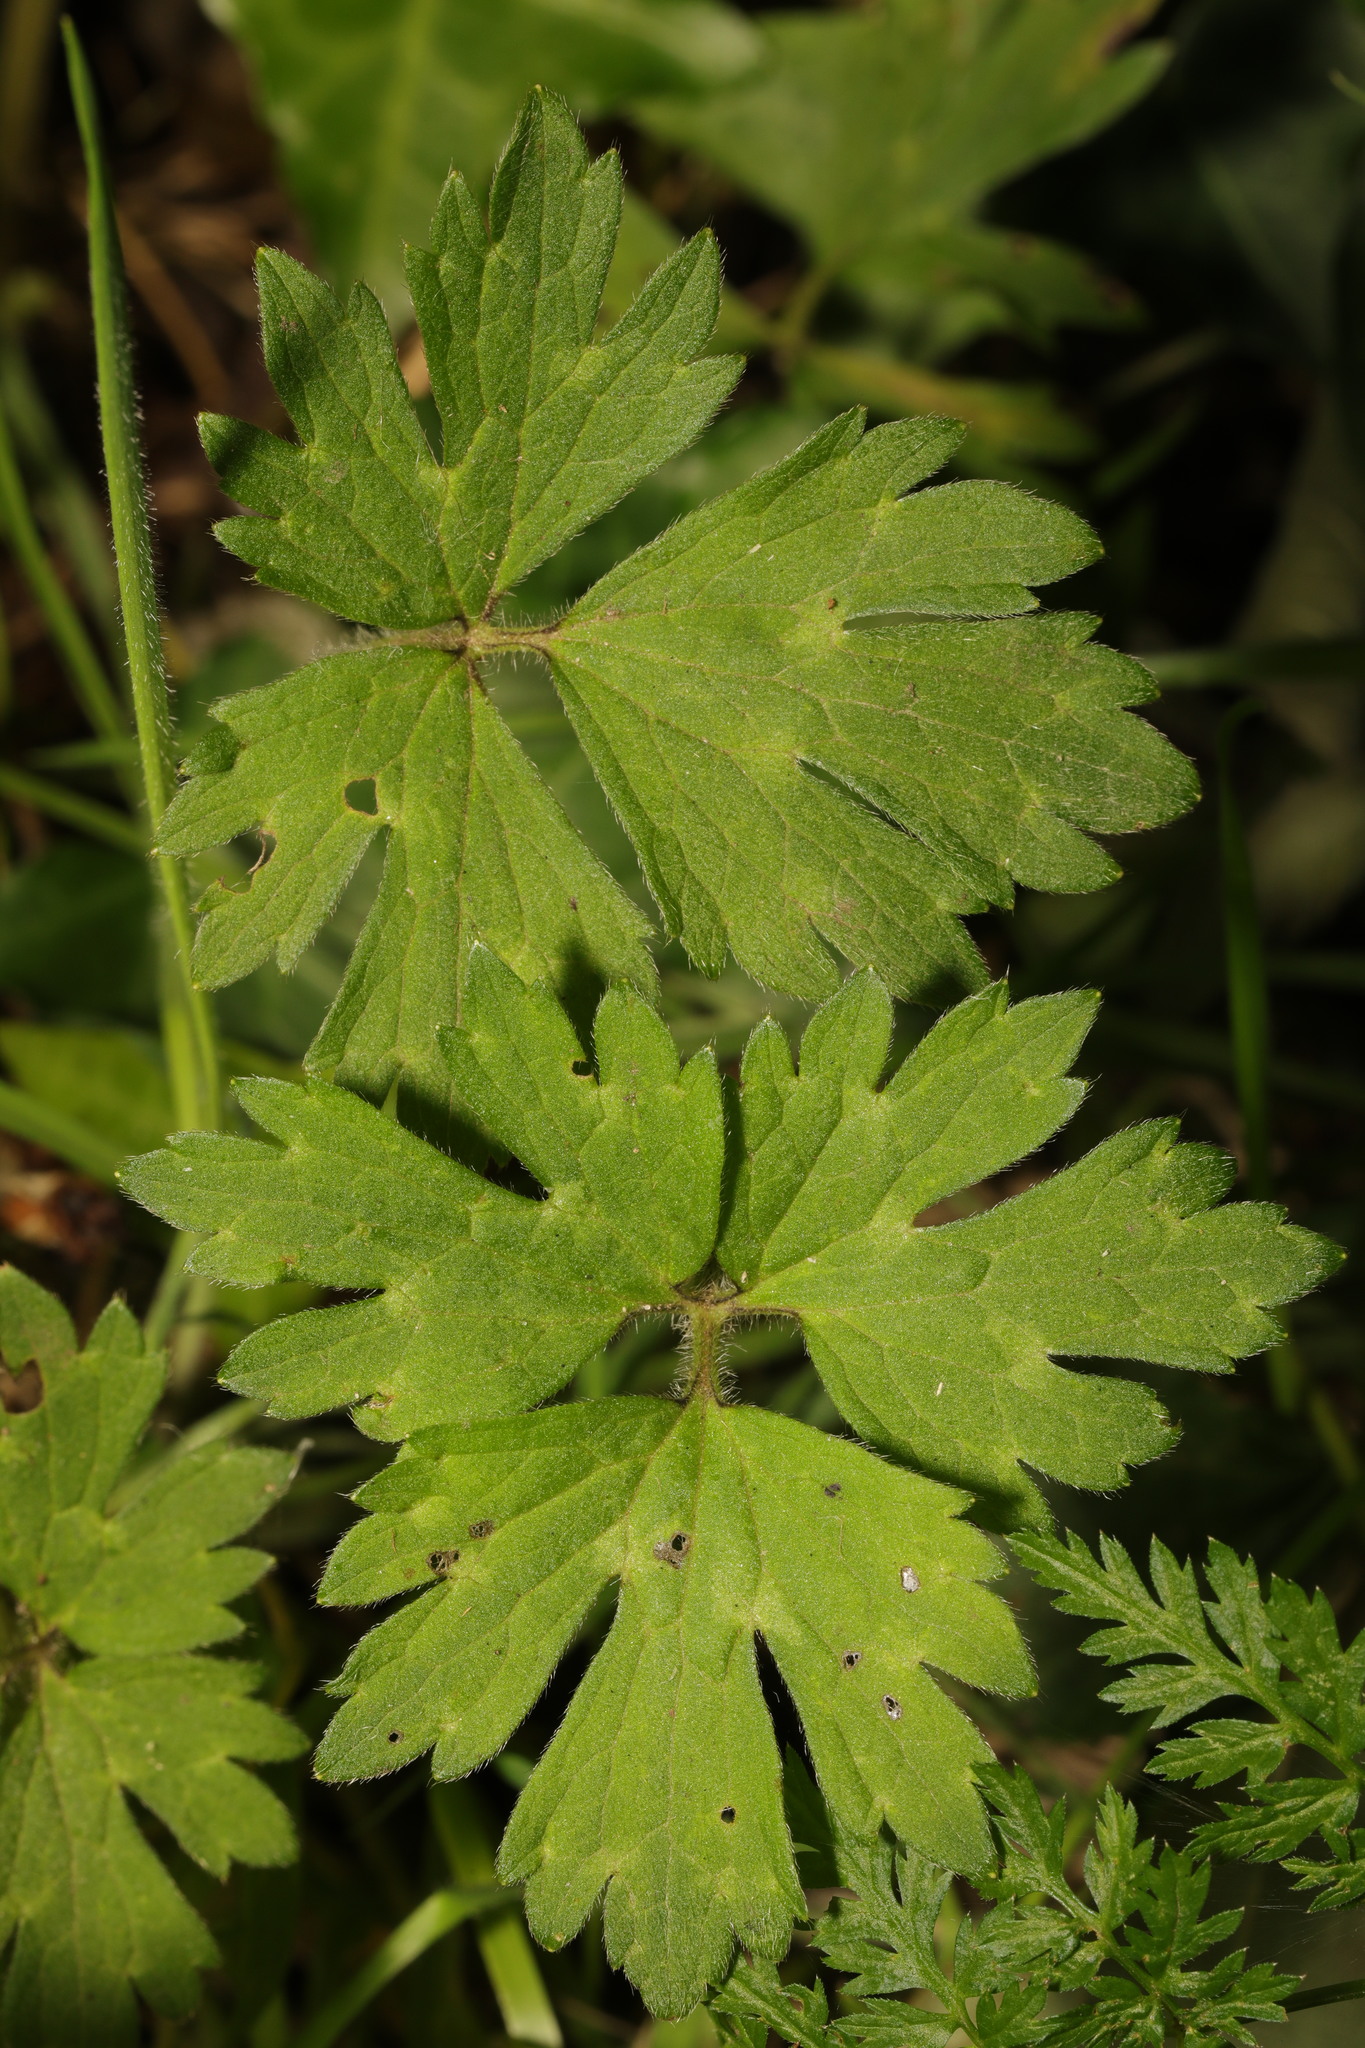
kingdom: Plantae
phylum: Tracheophyta
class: Magnoliopsida
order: Ranunculales
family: Ranunculaceae
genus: Ranunculus
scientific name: Ranunculus repens
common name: Creeping buttercup
